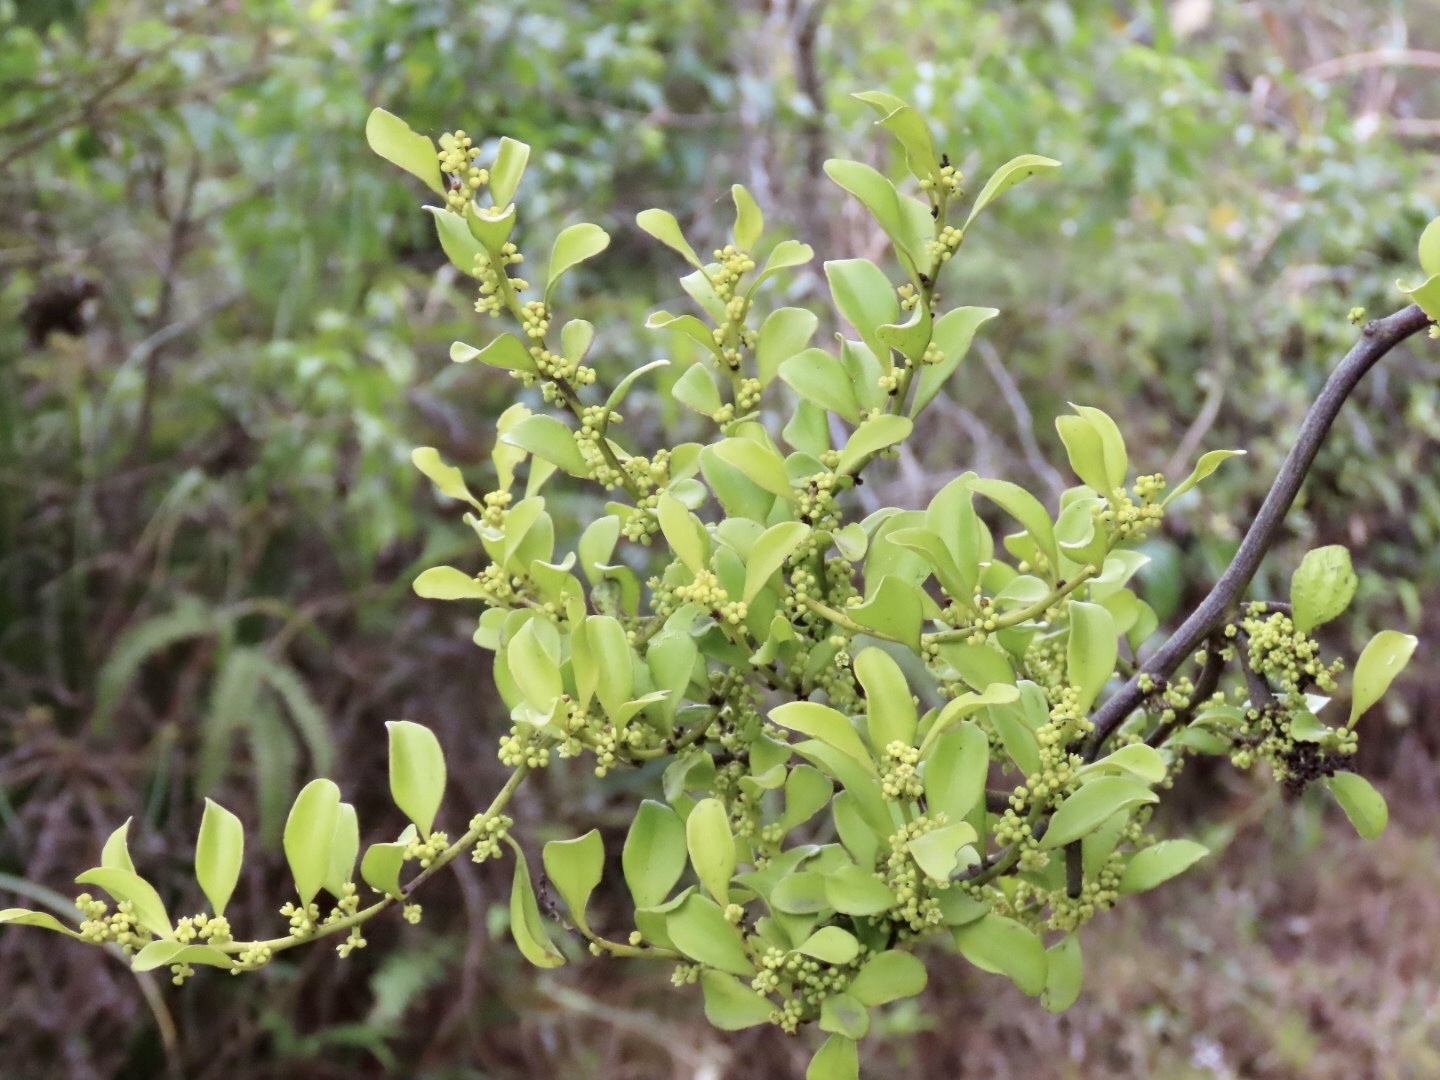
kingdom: Plantae
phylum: Tracheophyta
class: Magnoliopsida
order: Santalales
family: Amphorogynaceae
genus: Dendrotrophe
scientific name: Dendrotrophe varians
